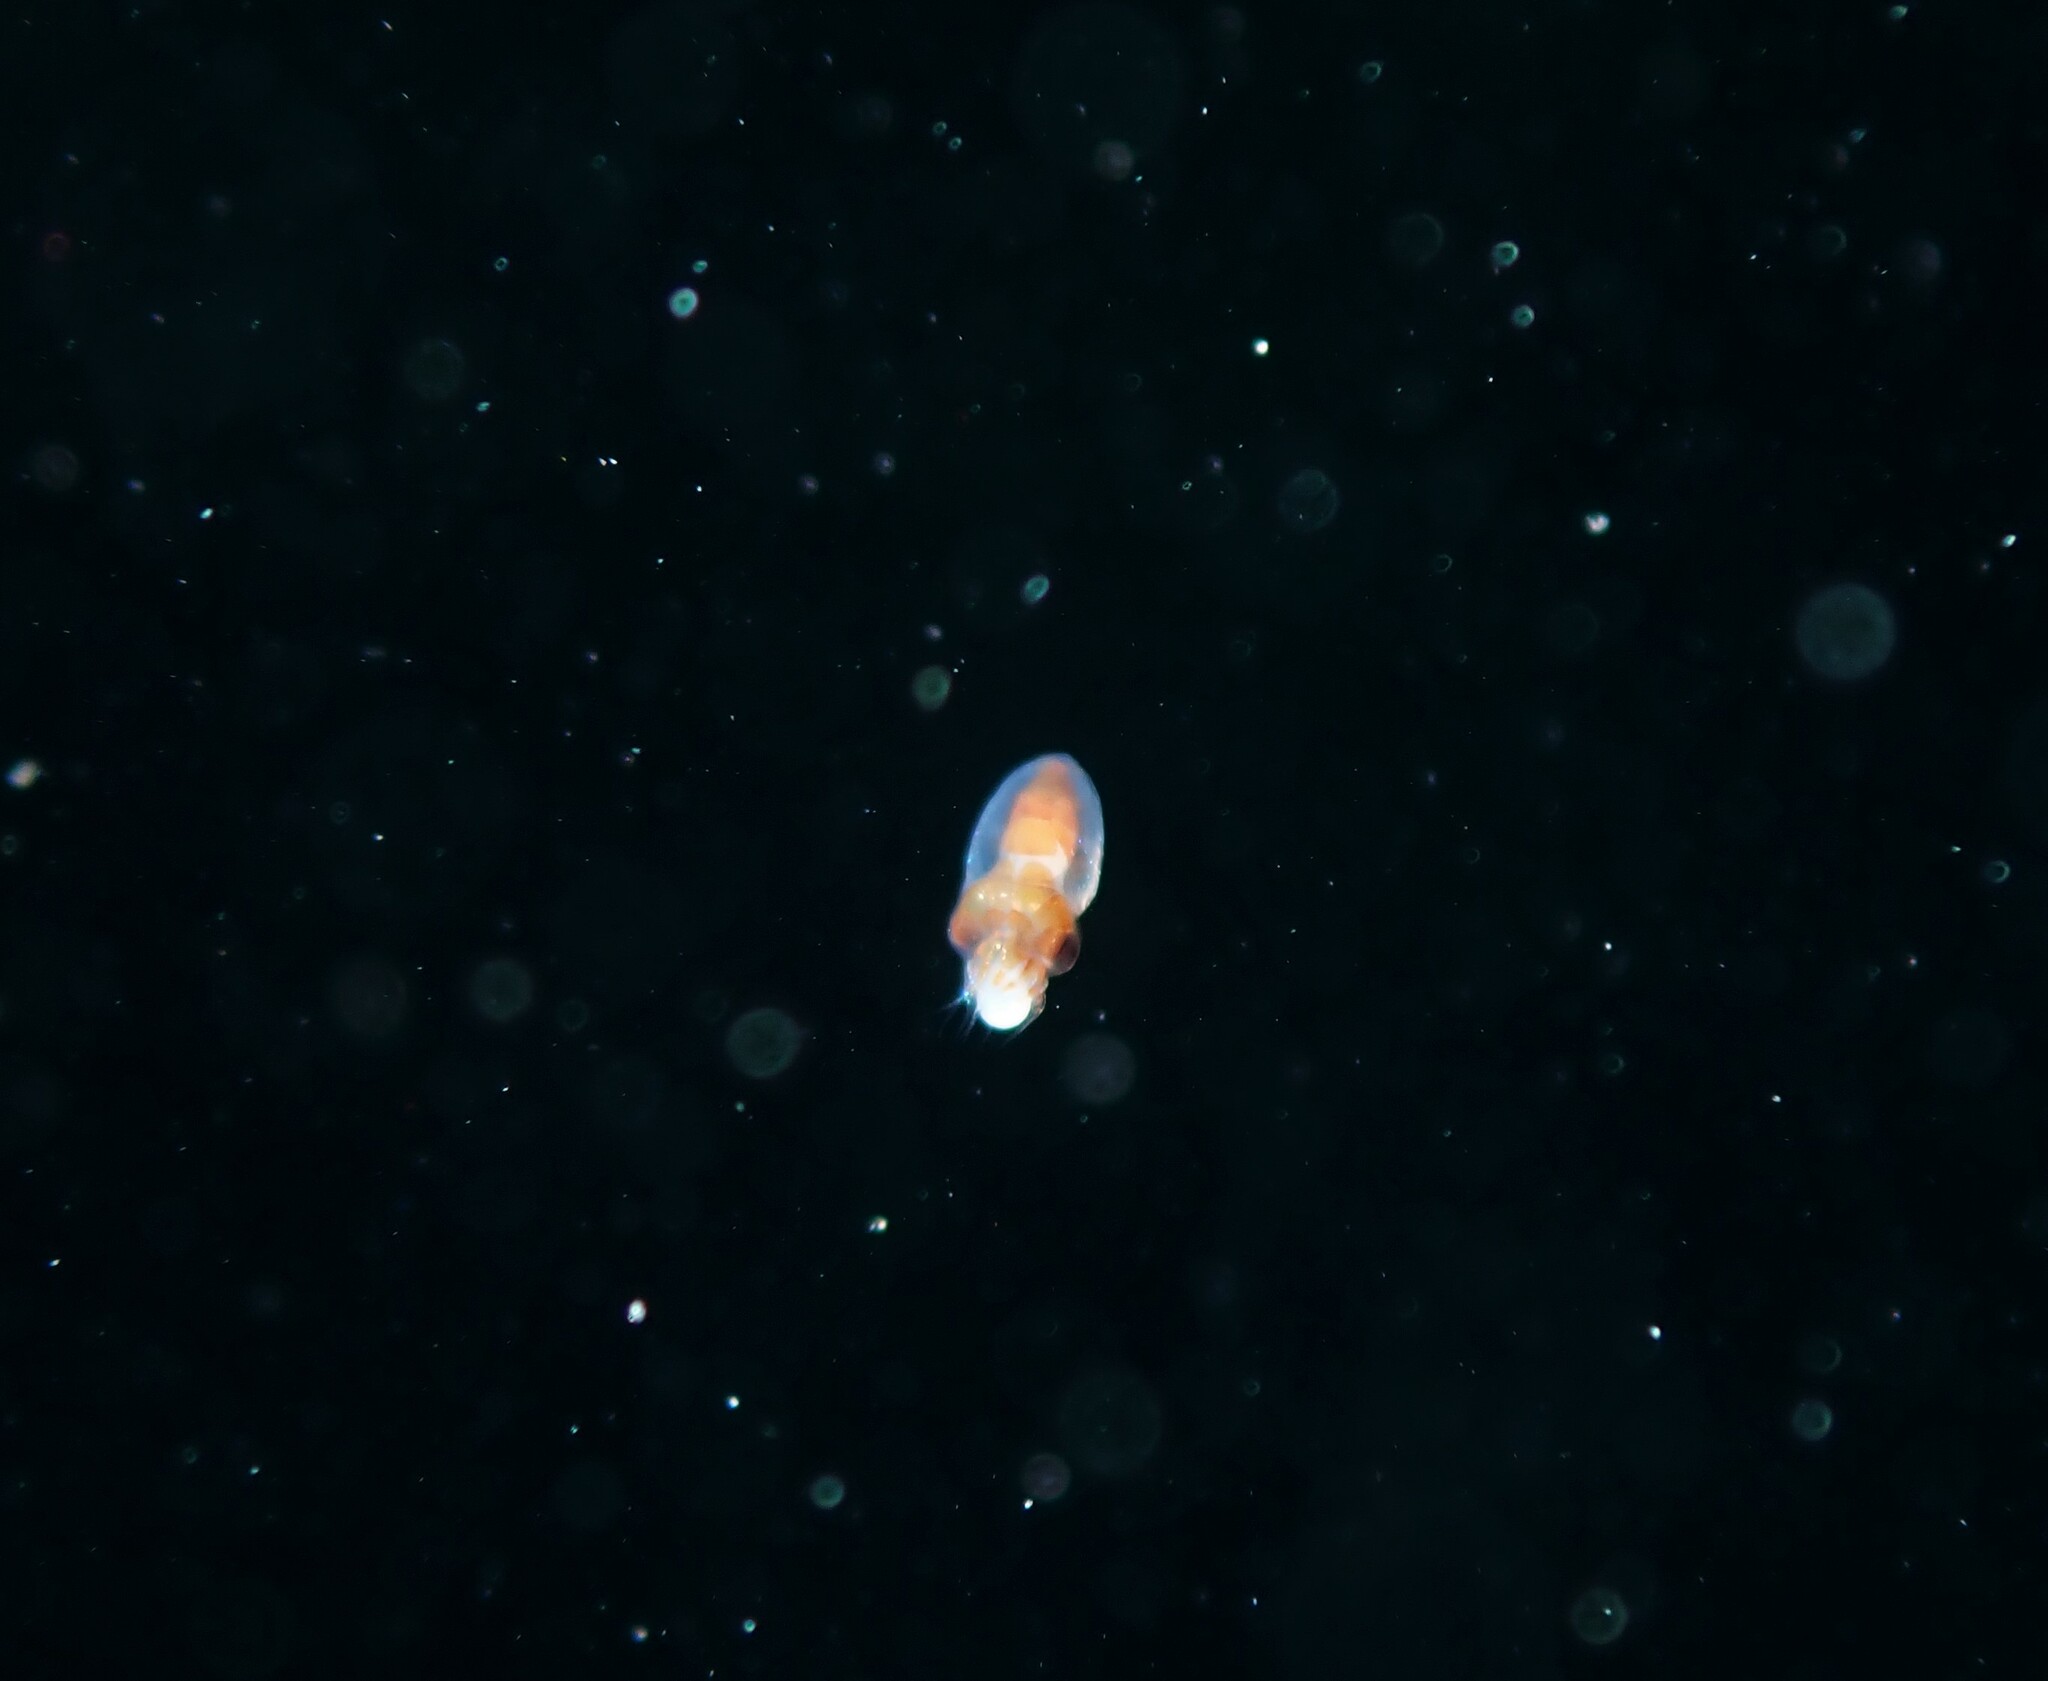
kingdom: Animalia
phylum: Mollusca
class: Cephalopoda
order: Myopsida
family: Loliginidae
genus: Sepioteuthis
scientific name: Sepioteuthis australis
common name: Southern reef squid
